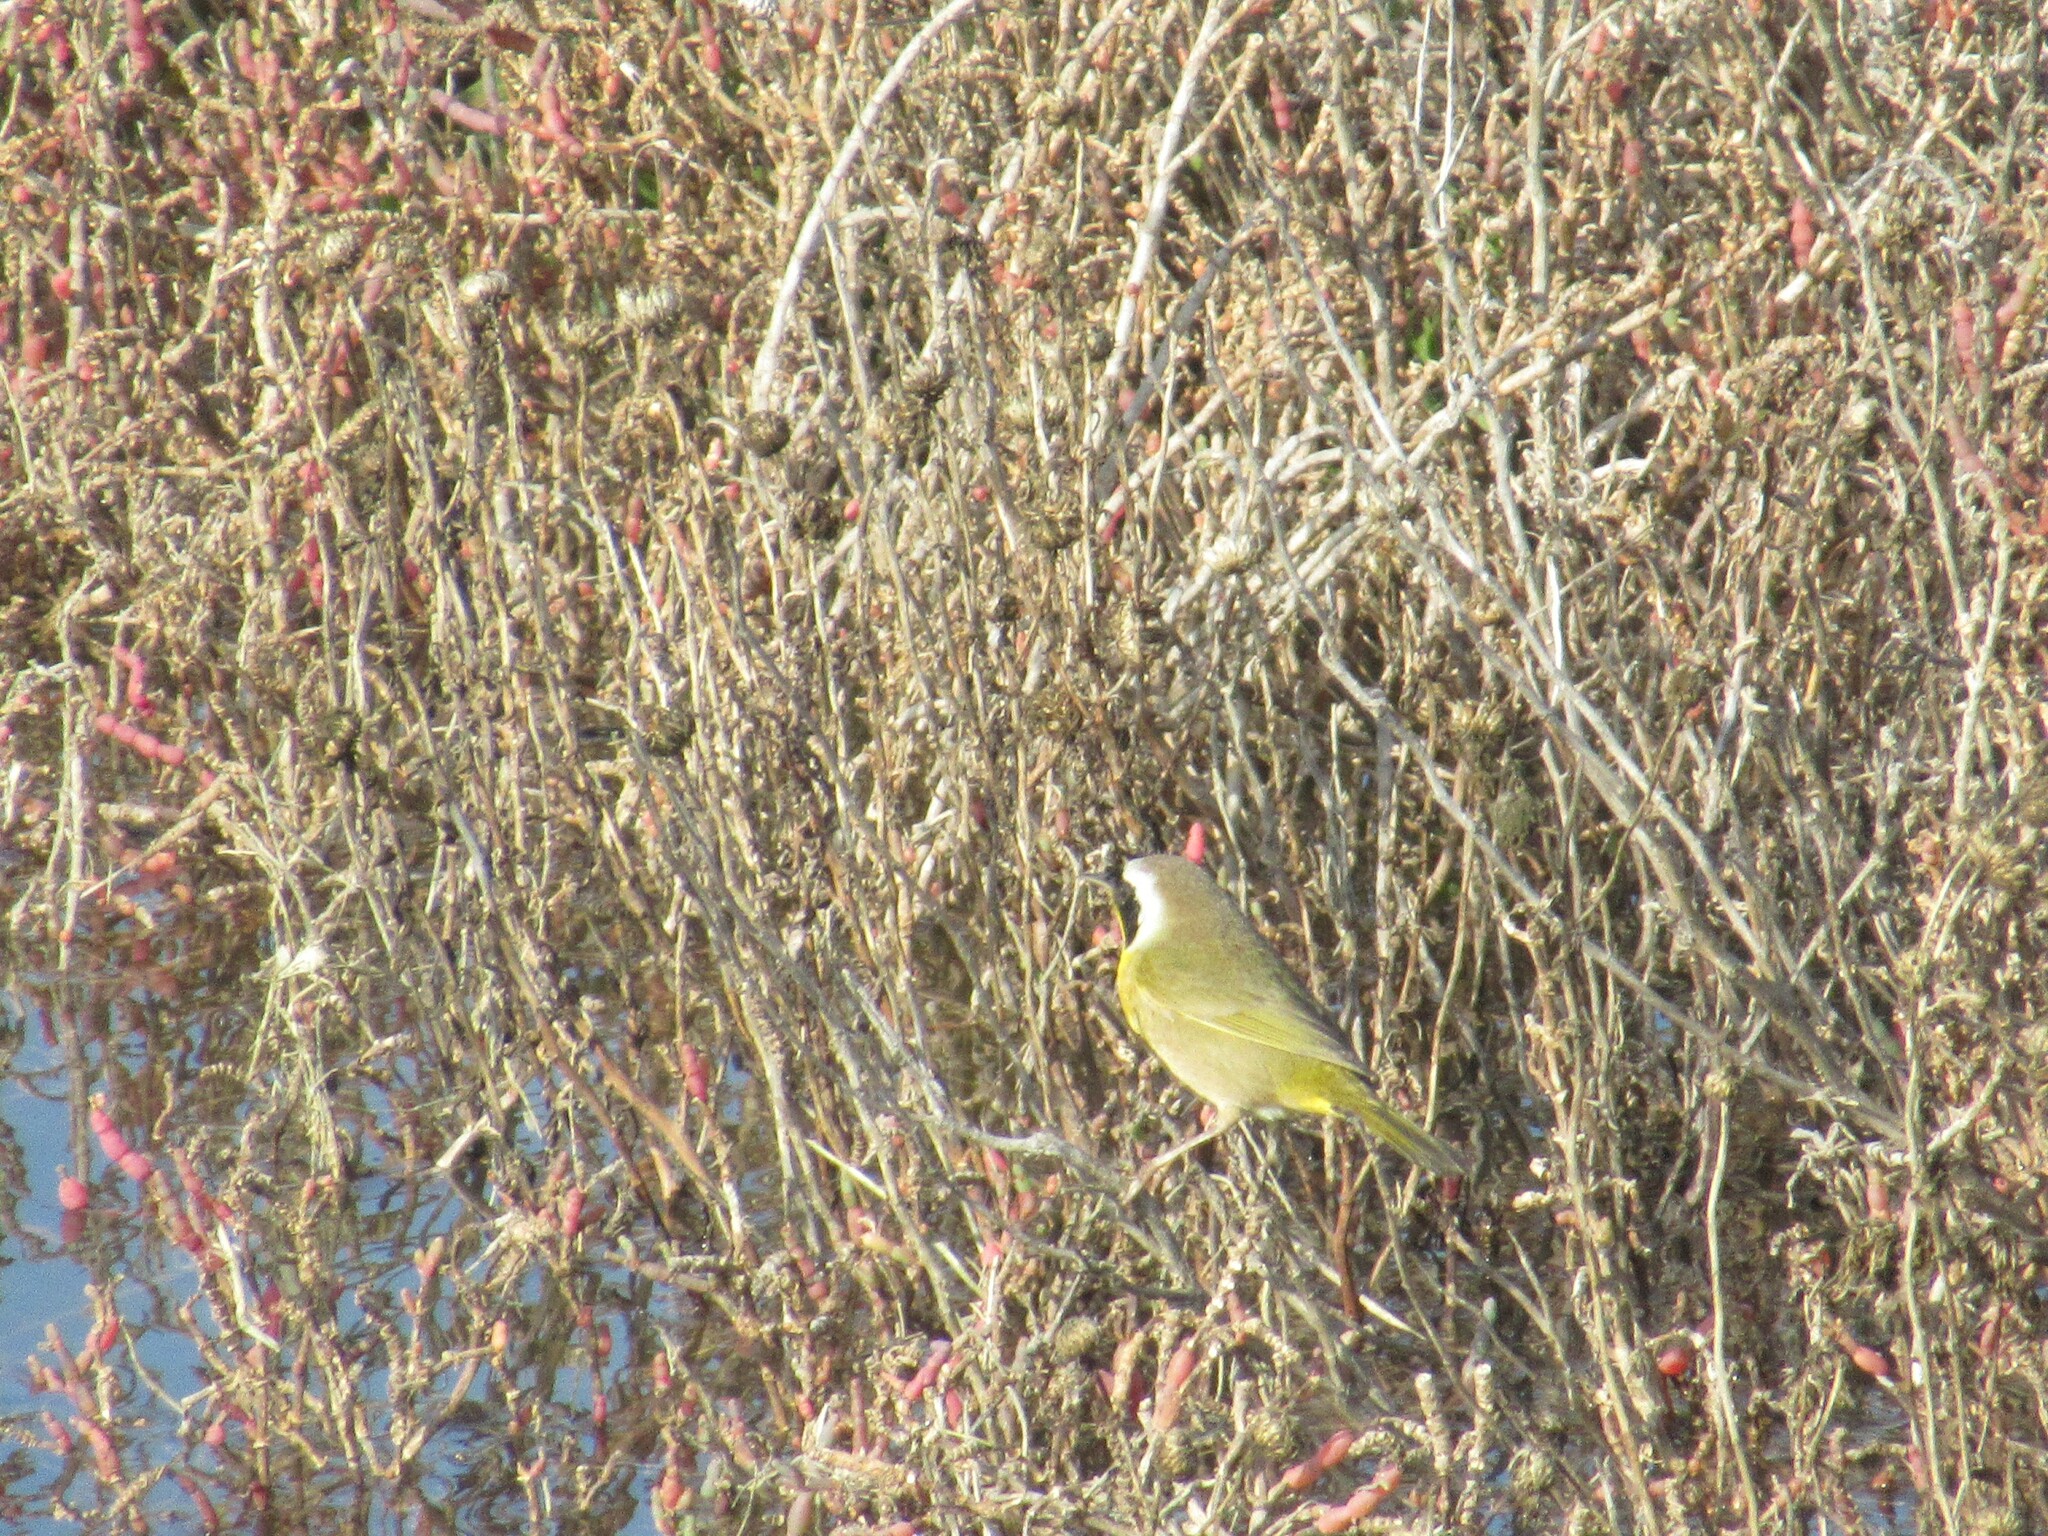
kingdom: Animalia
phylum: Chordata
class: Aves
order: Passeriformes
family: Parulidae
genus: Geothlypis
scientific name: Geothlypis trichas
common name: Common yellowthroat
